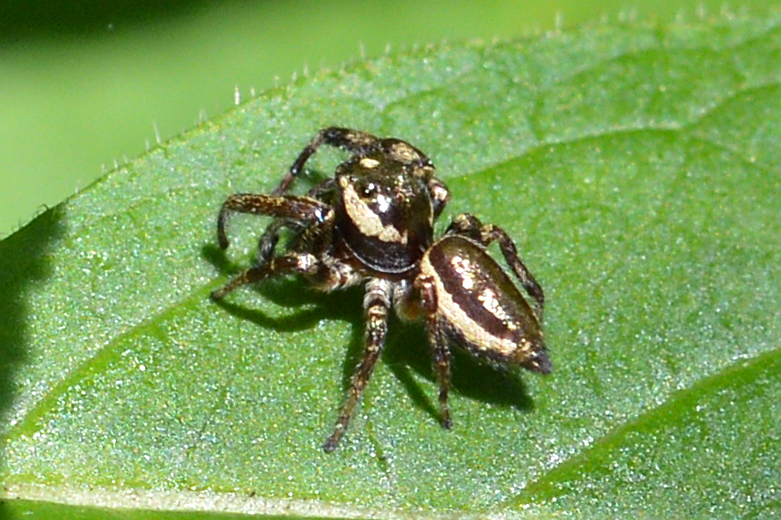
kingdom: Animalia
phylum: Arthropoda
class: Arachnida
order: Araneae
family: Salticidae
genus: Eris
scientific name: Eris militaris
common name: Bronze jumper
